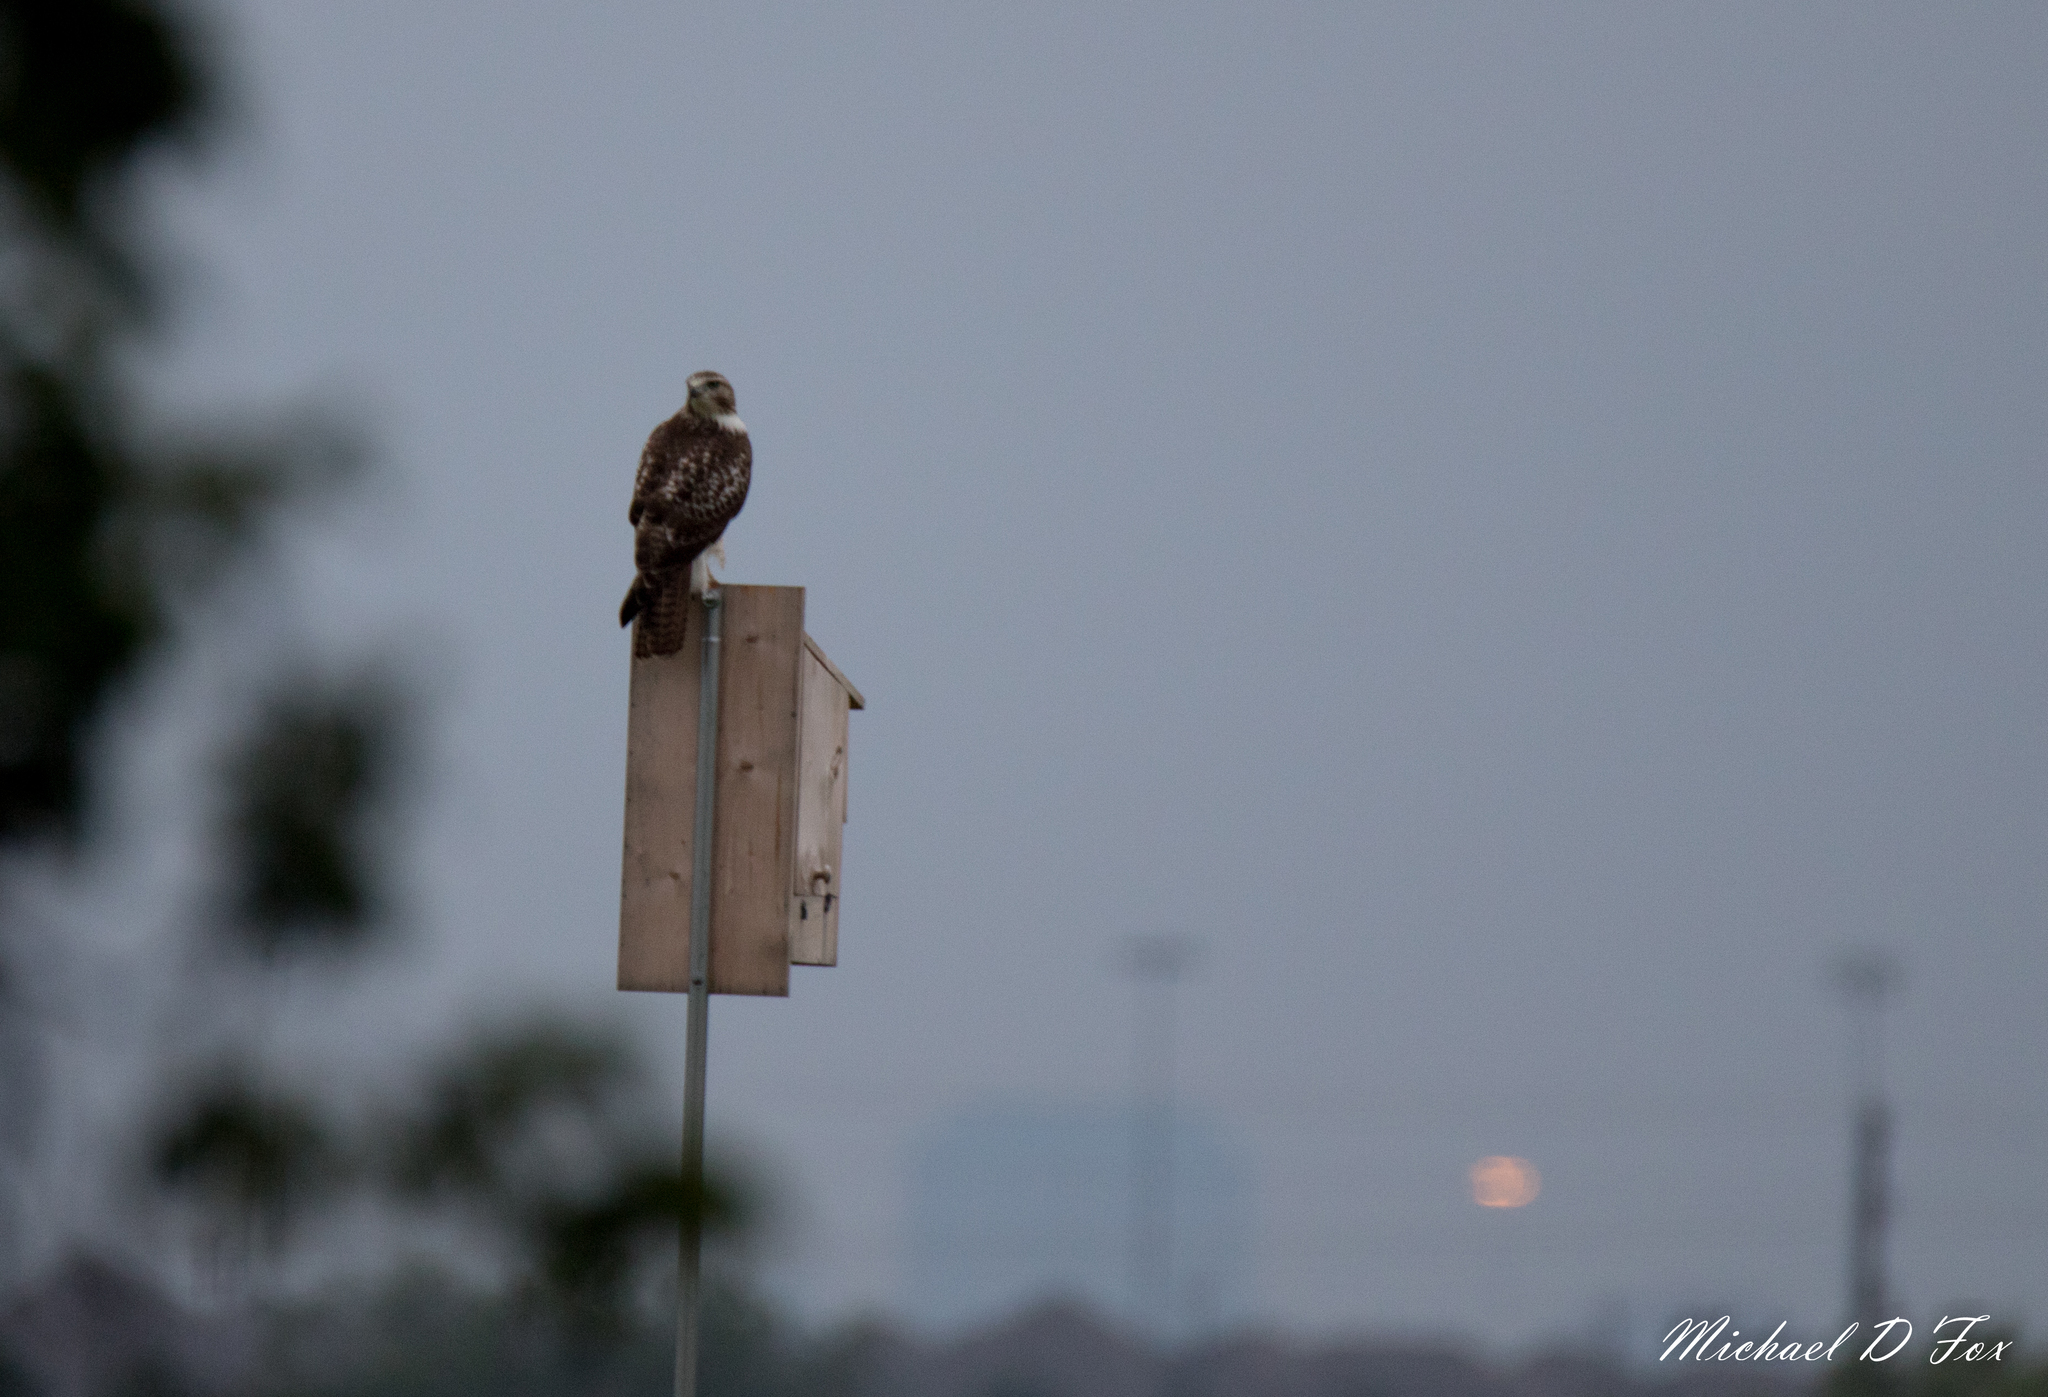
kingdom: Animalia
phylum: Chordata
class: Aves
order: Accipitriformes
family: Accipitridae
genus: Buteo
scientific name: Buteo jamaicensis
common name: Red-tailed hawk
